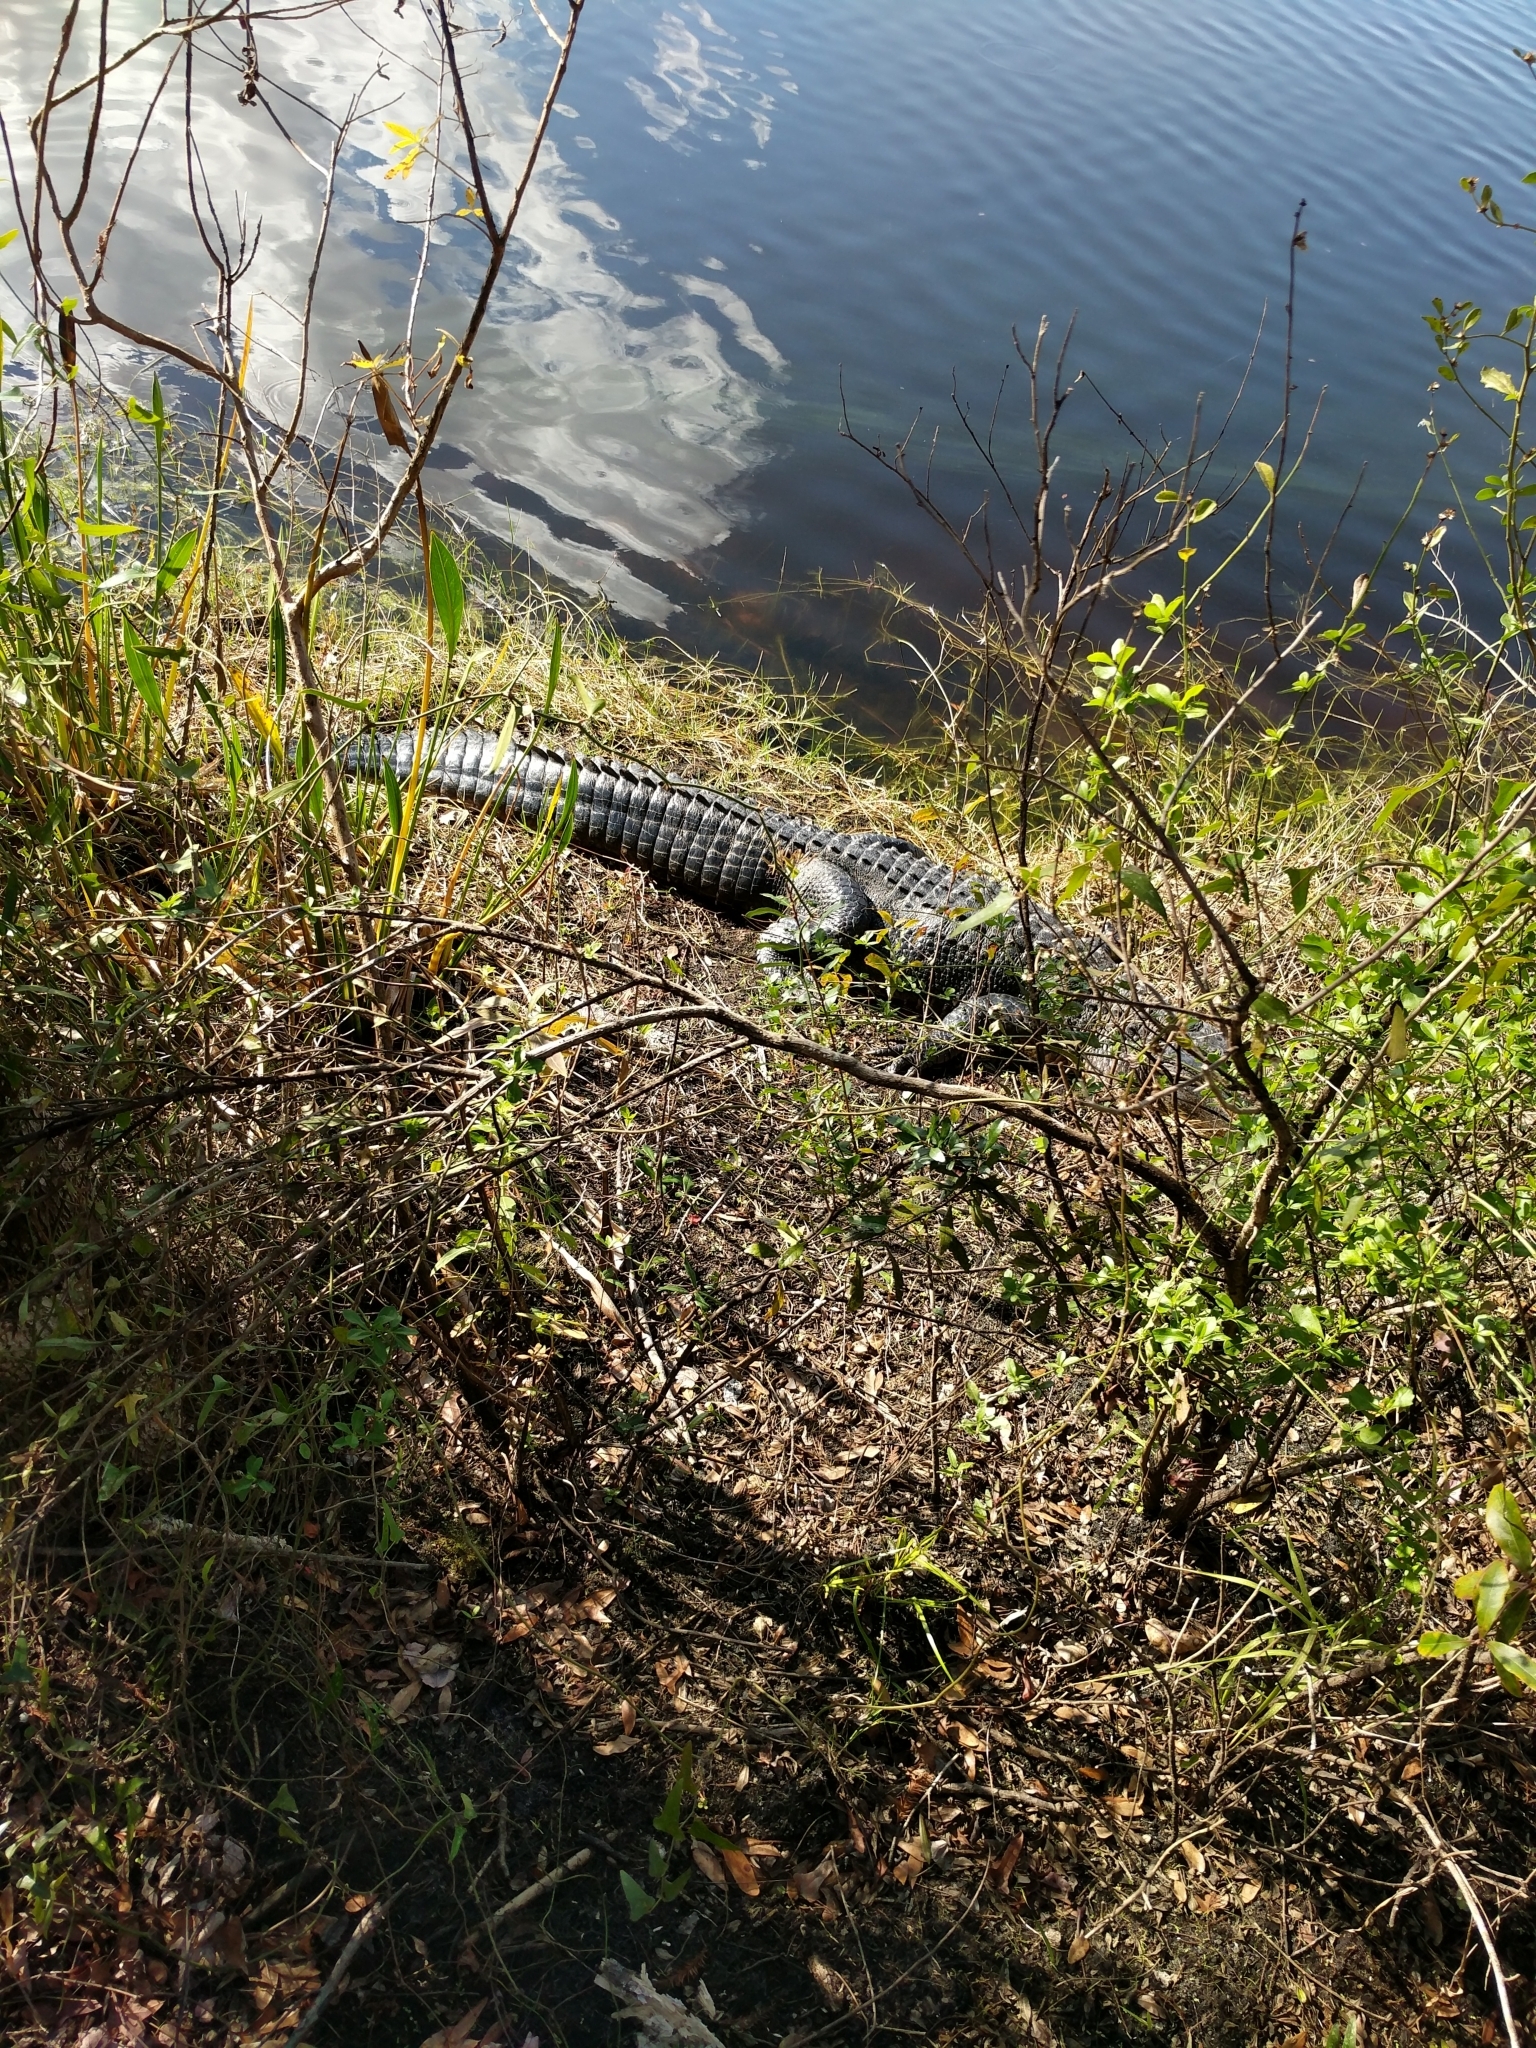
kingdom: Animalia
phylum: Chordata
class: Crocodylia
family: Alligatoridae
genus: Alligator
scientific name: Alligator mississippiensis
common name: American alligator
